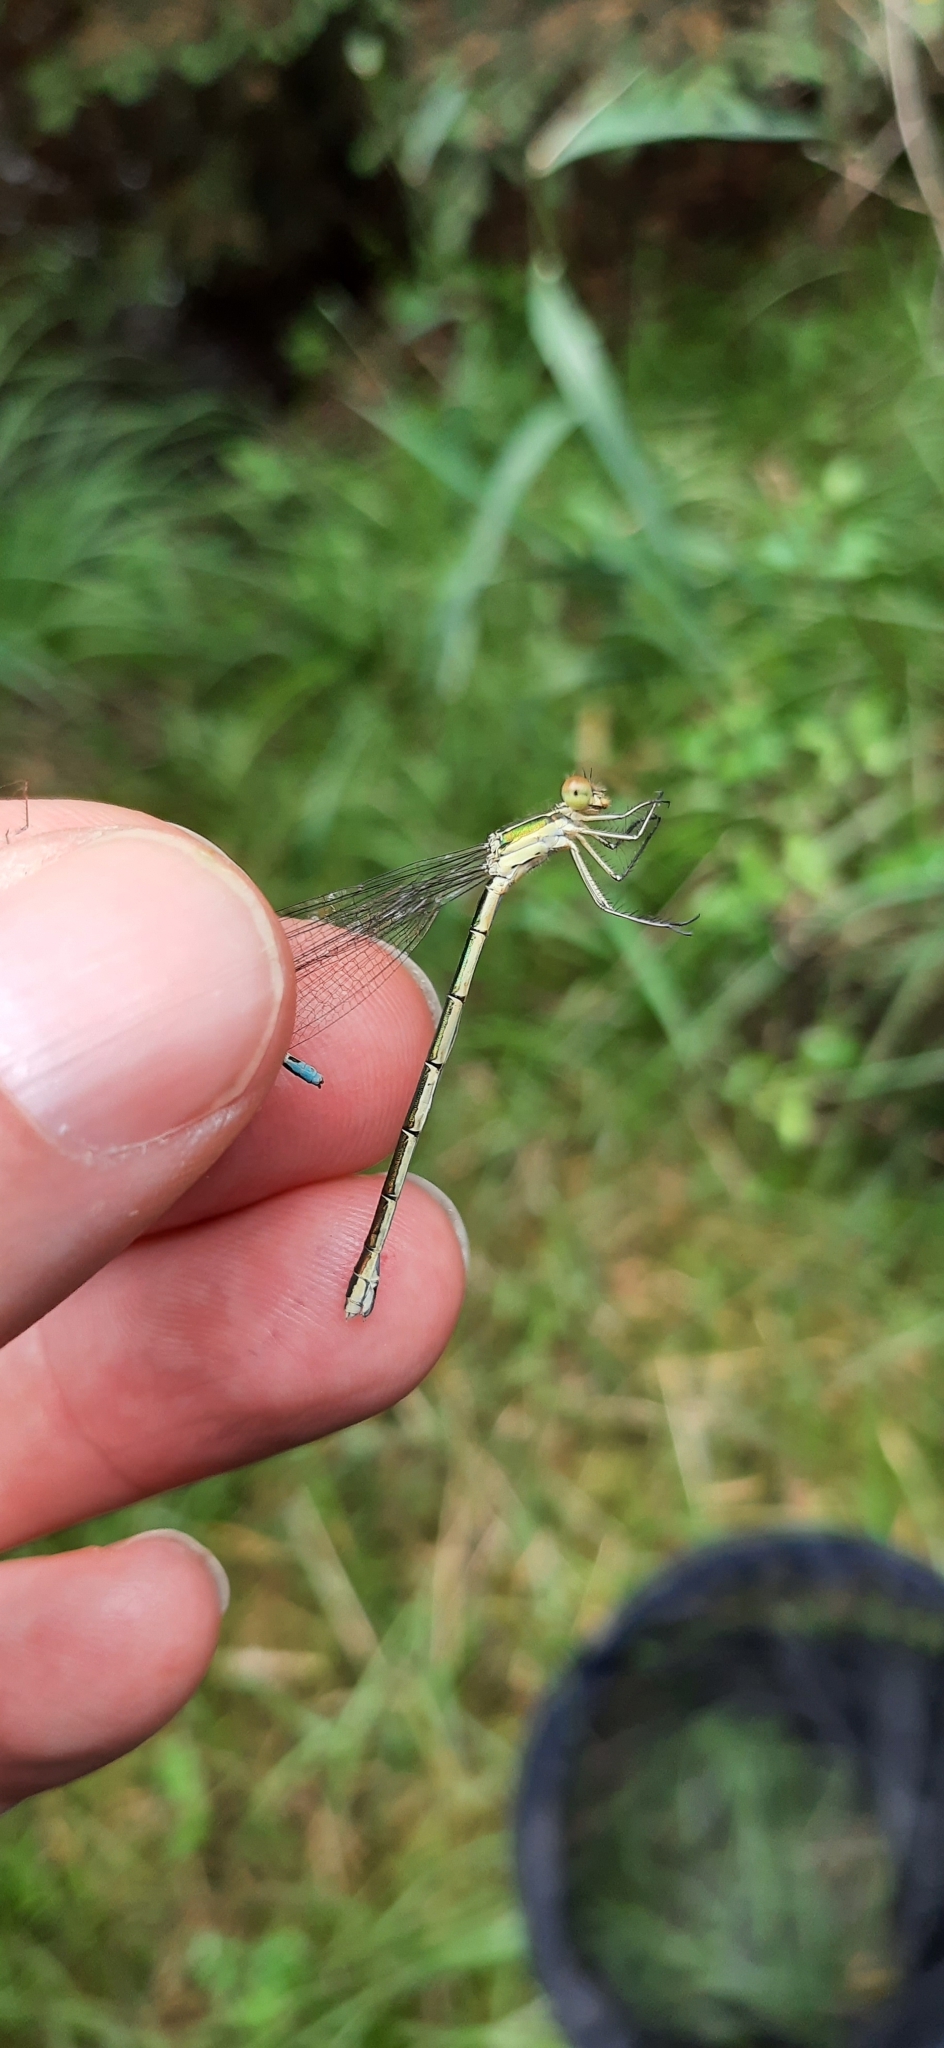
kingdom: Animalia
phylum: Arthropoda
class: Insecta
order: Odonata
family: Lestidae
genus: Lestes
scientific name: Lestes sponsa
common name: Common spreadwing
